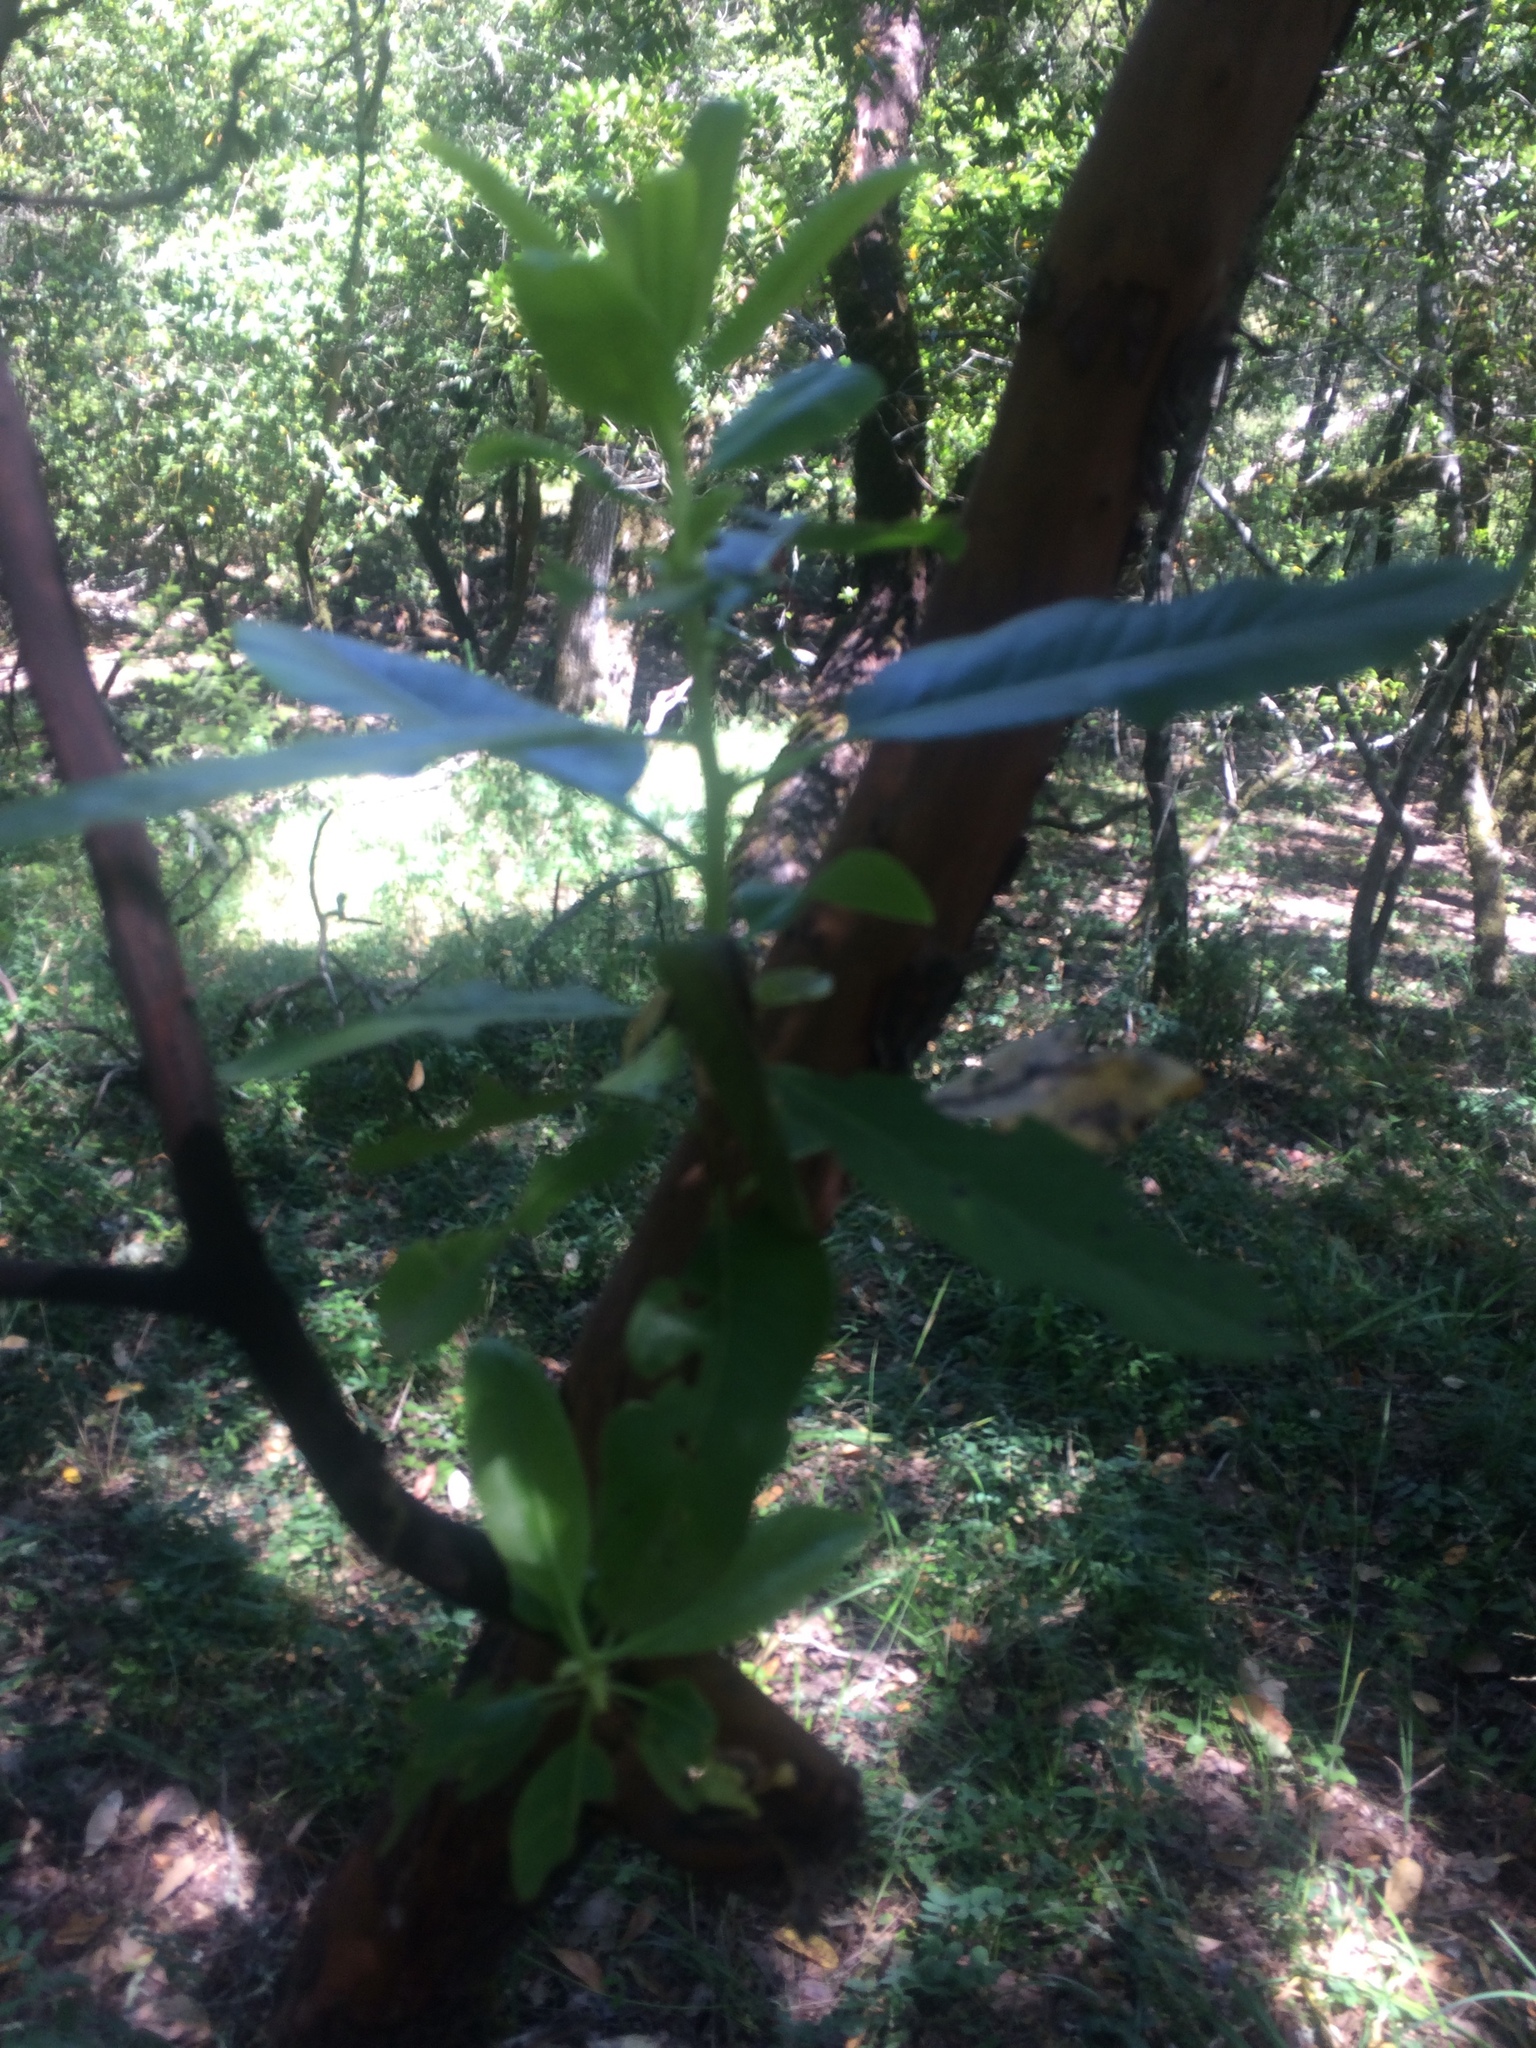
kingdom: Plantae
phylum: Tracheophyta
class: Magnoliopsida
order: Ericales
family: Ericaceae
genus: Arbutus
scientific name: Arbutus menziesii
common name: Pacific madrone
